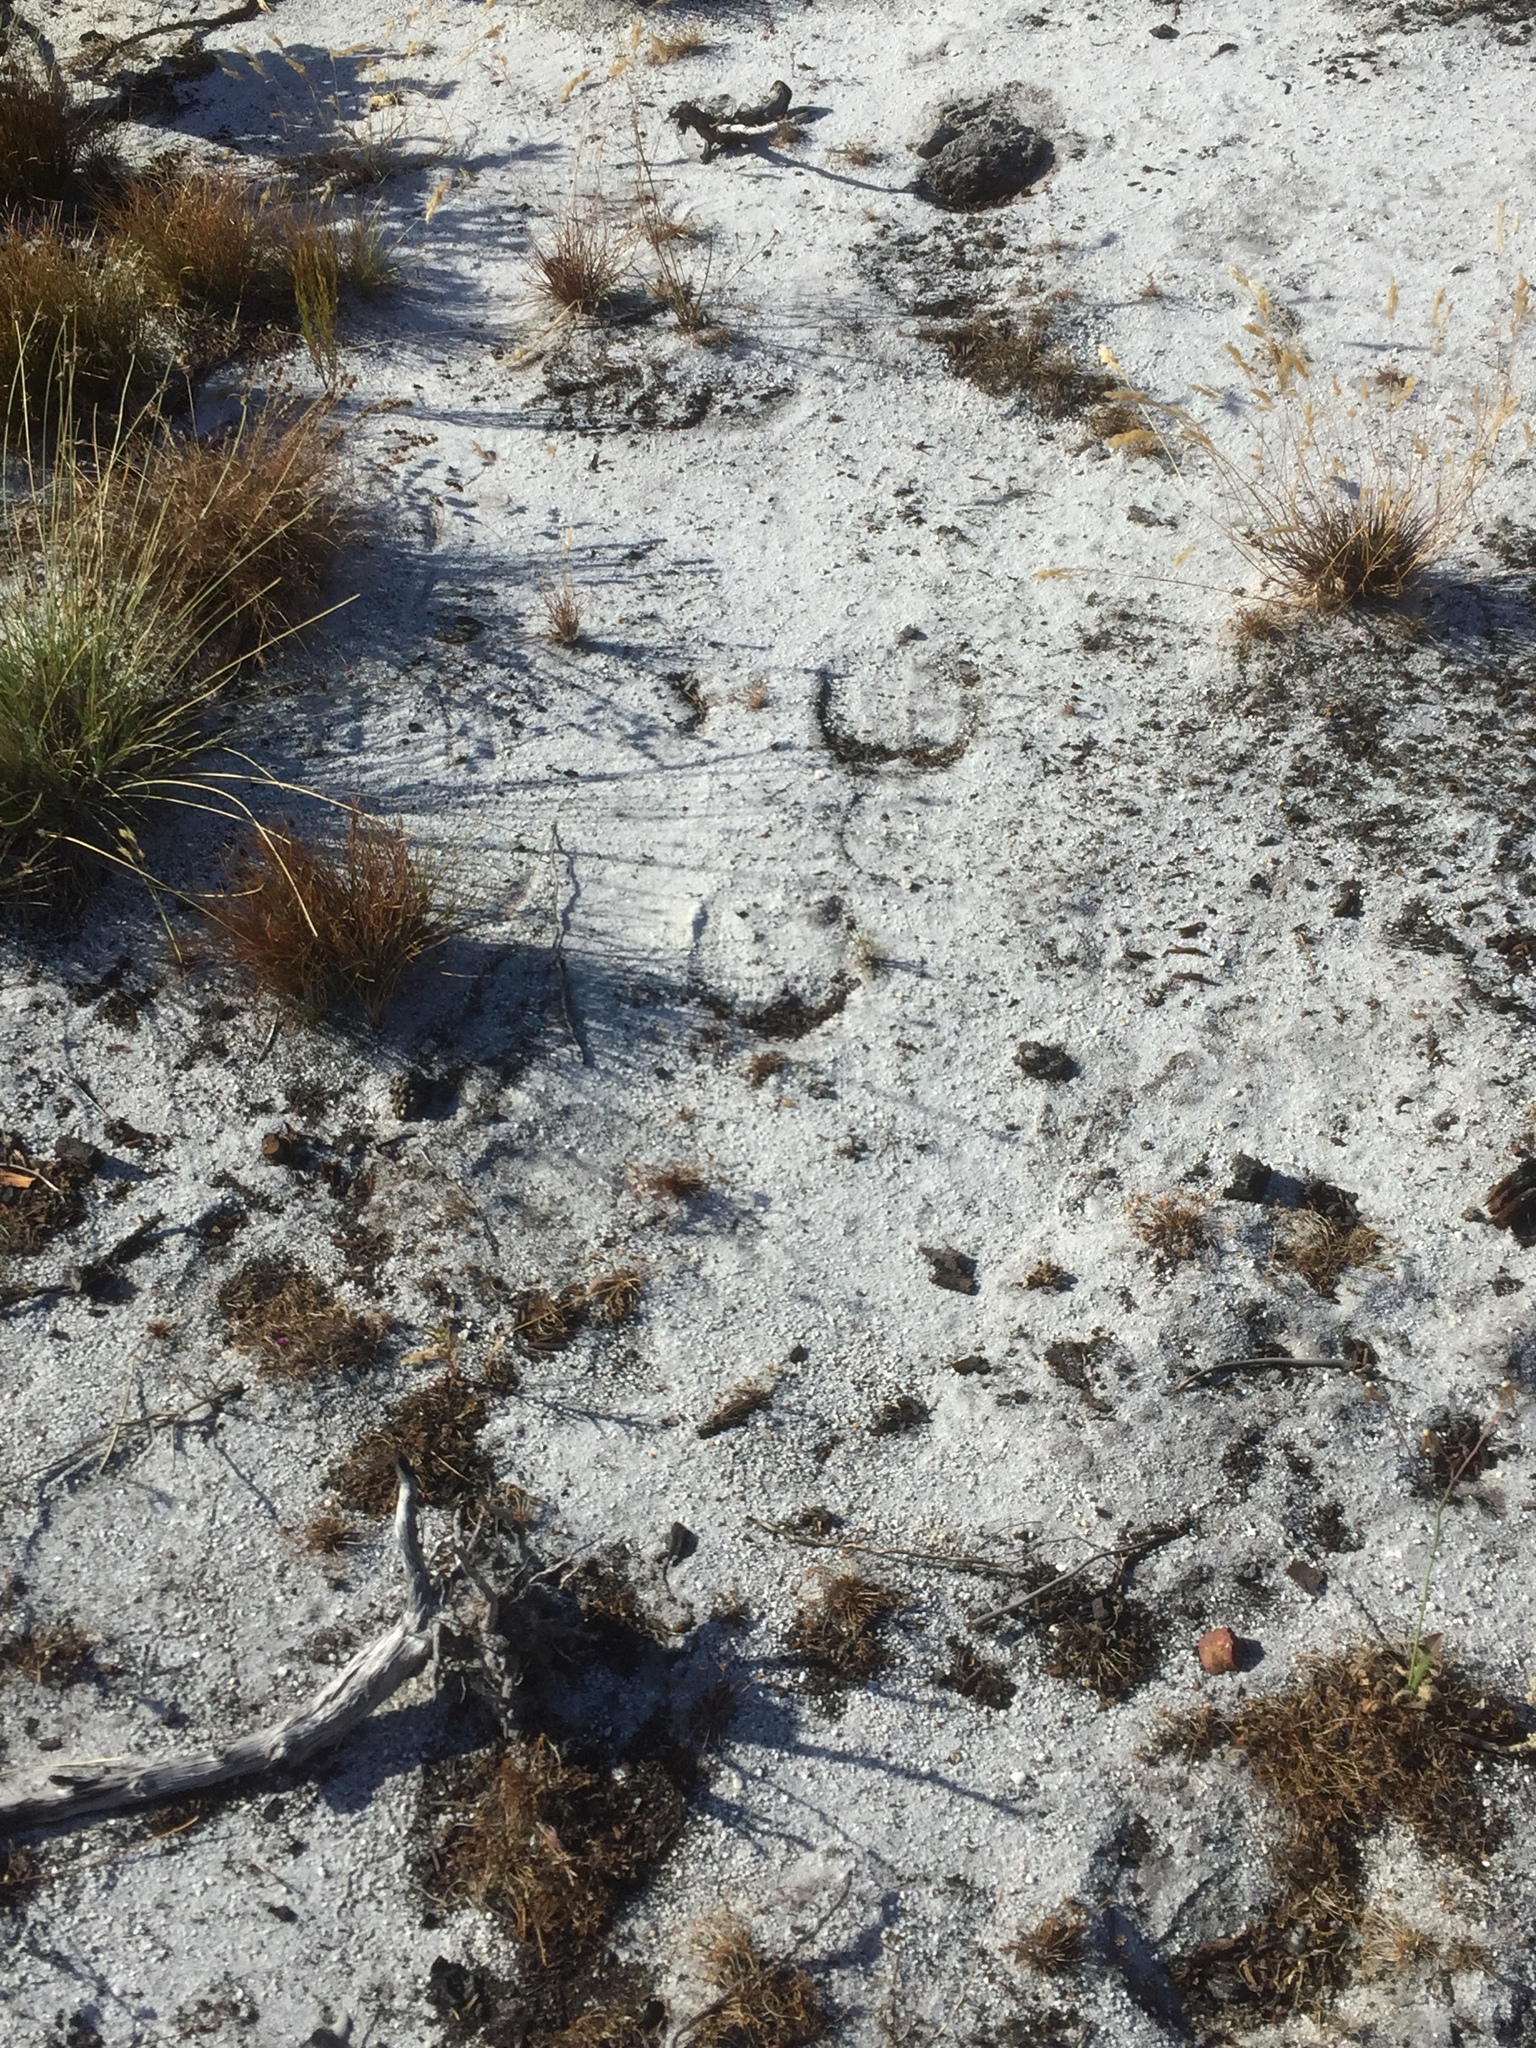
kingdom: Animalia
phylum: Chordata
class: Mammalia
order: Perissodactyla
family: Equidae
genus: Equus
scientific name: Equus caballus
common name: Horse
